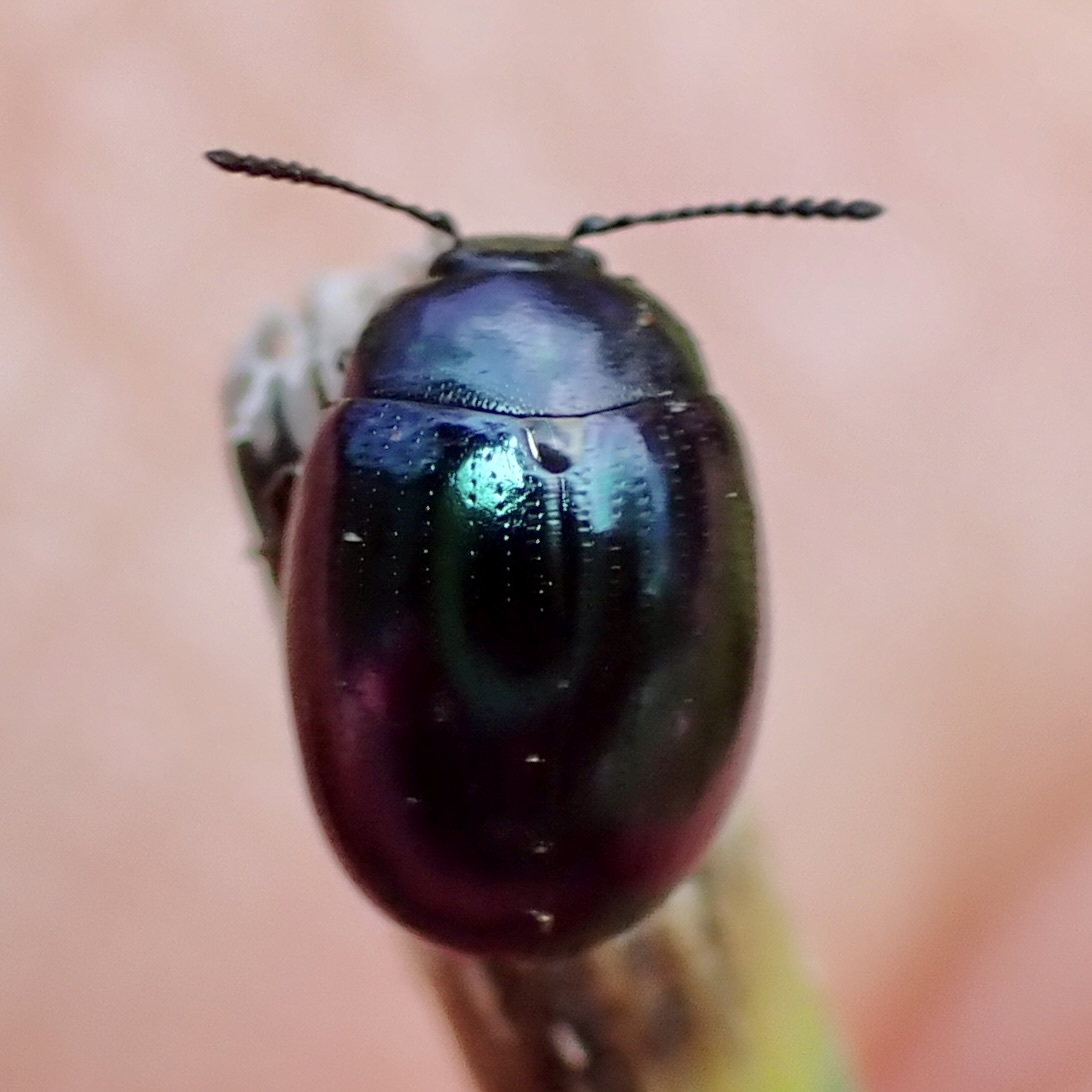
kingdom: Animalia
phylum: Arthropoda
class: Insecta
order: Coleoptera
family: Chrysomelidae
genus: Phaedon
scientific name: Phaedon purpureus
